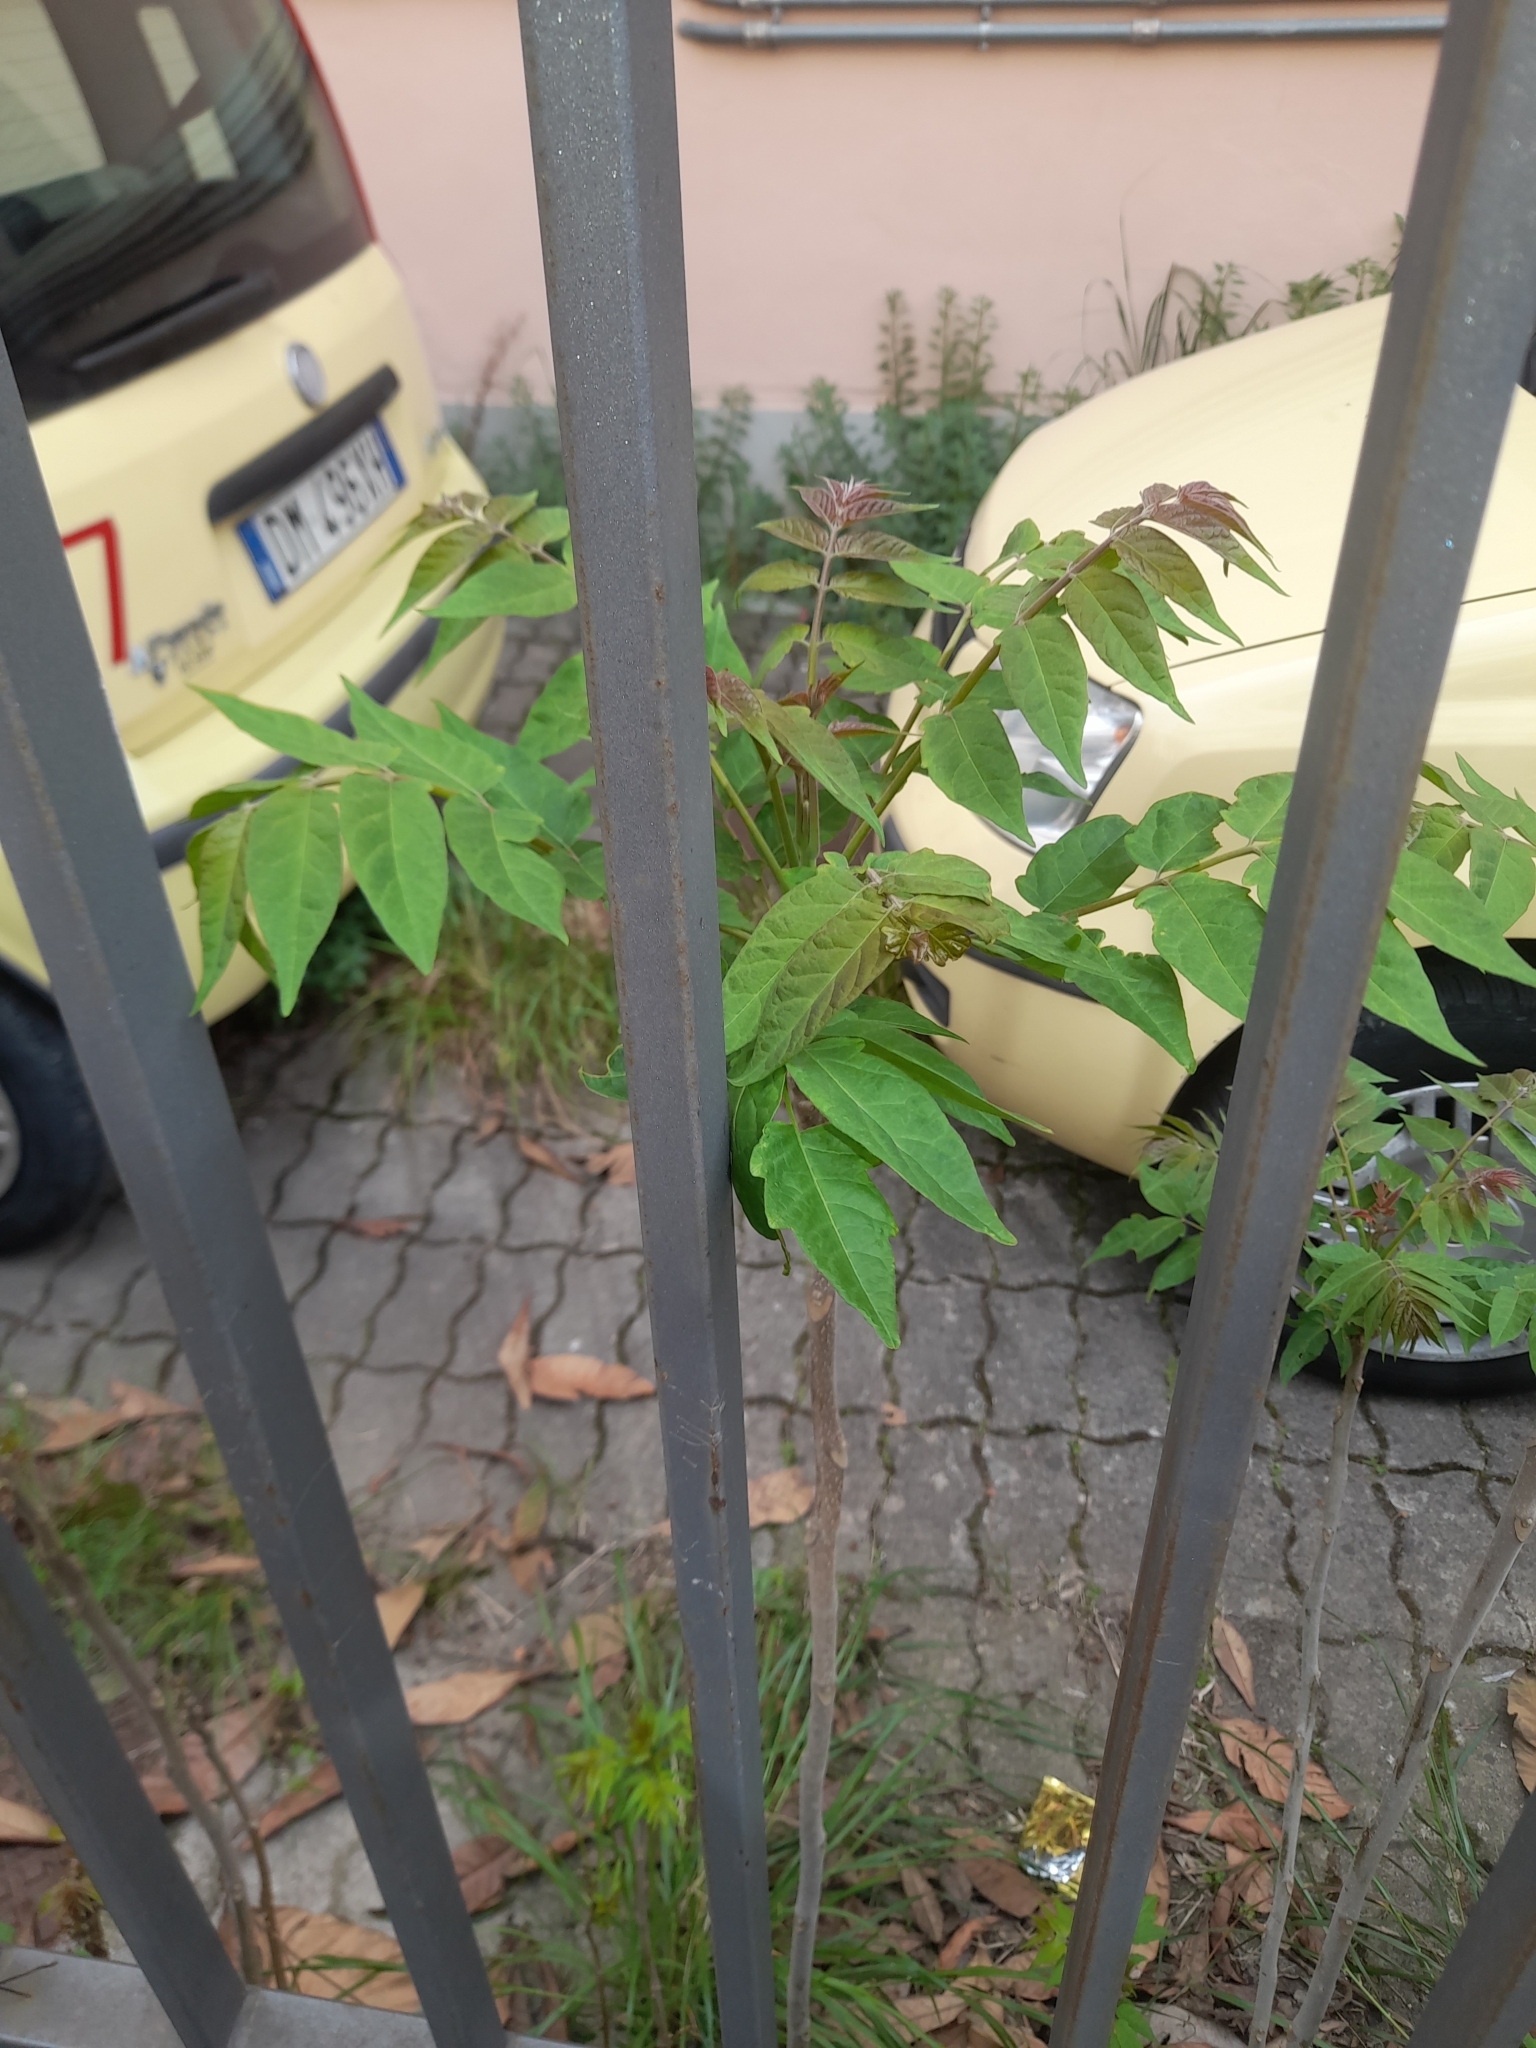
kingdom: Plantae
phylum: Tracheophyta
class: Magnoliopsida
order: Sapindales
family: Simaroubaceae
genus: Ailanthus
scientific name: Ailanthus altissima
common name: Tree-of-heaven
